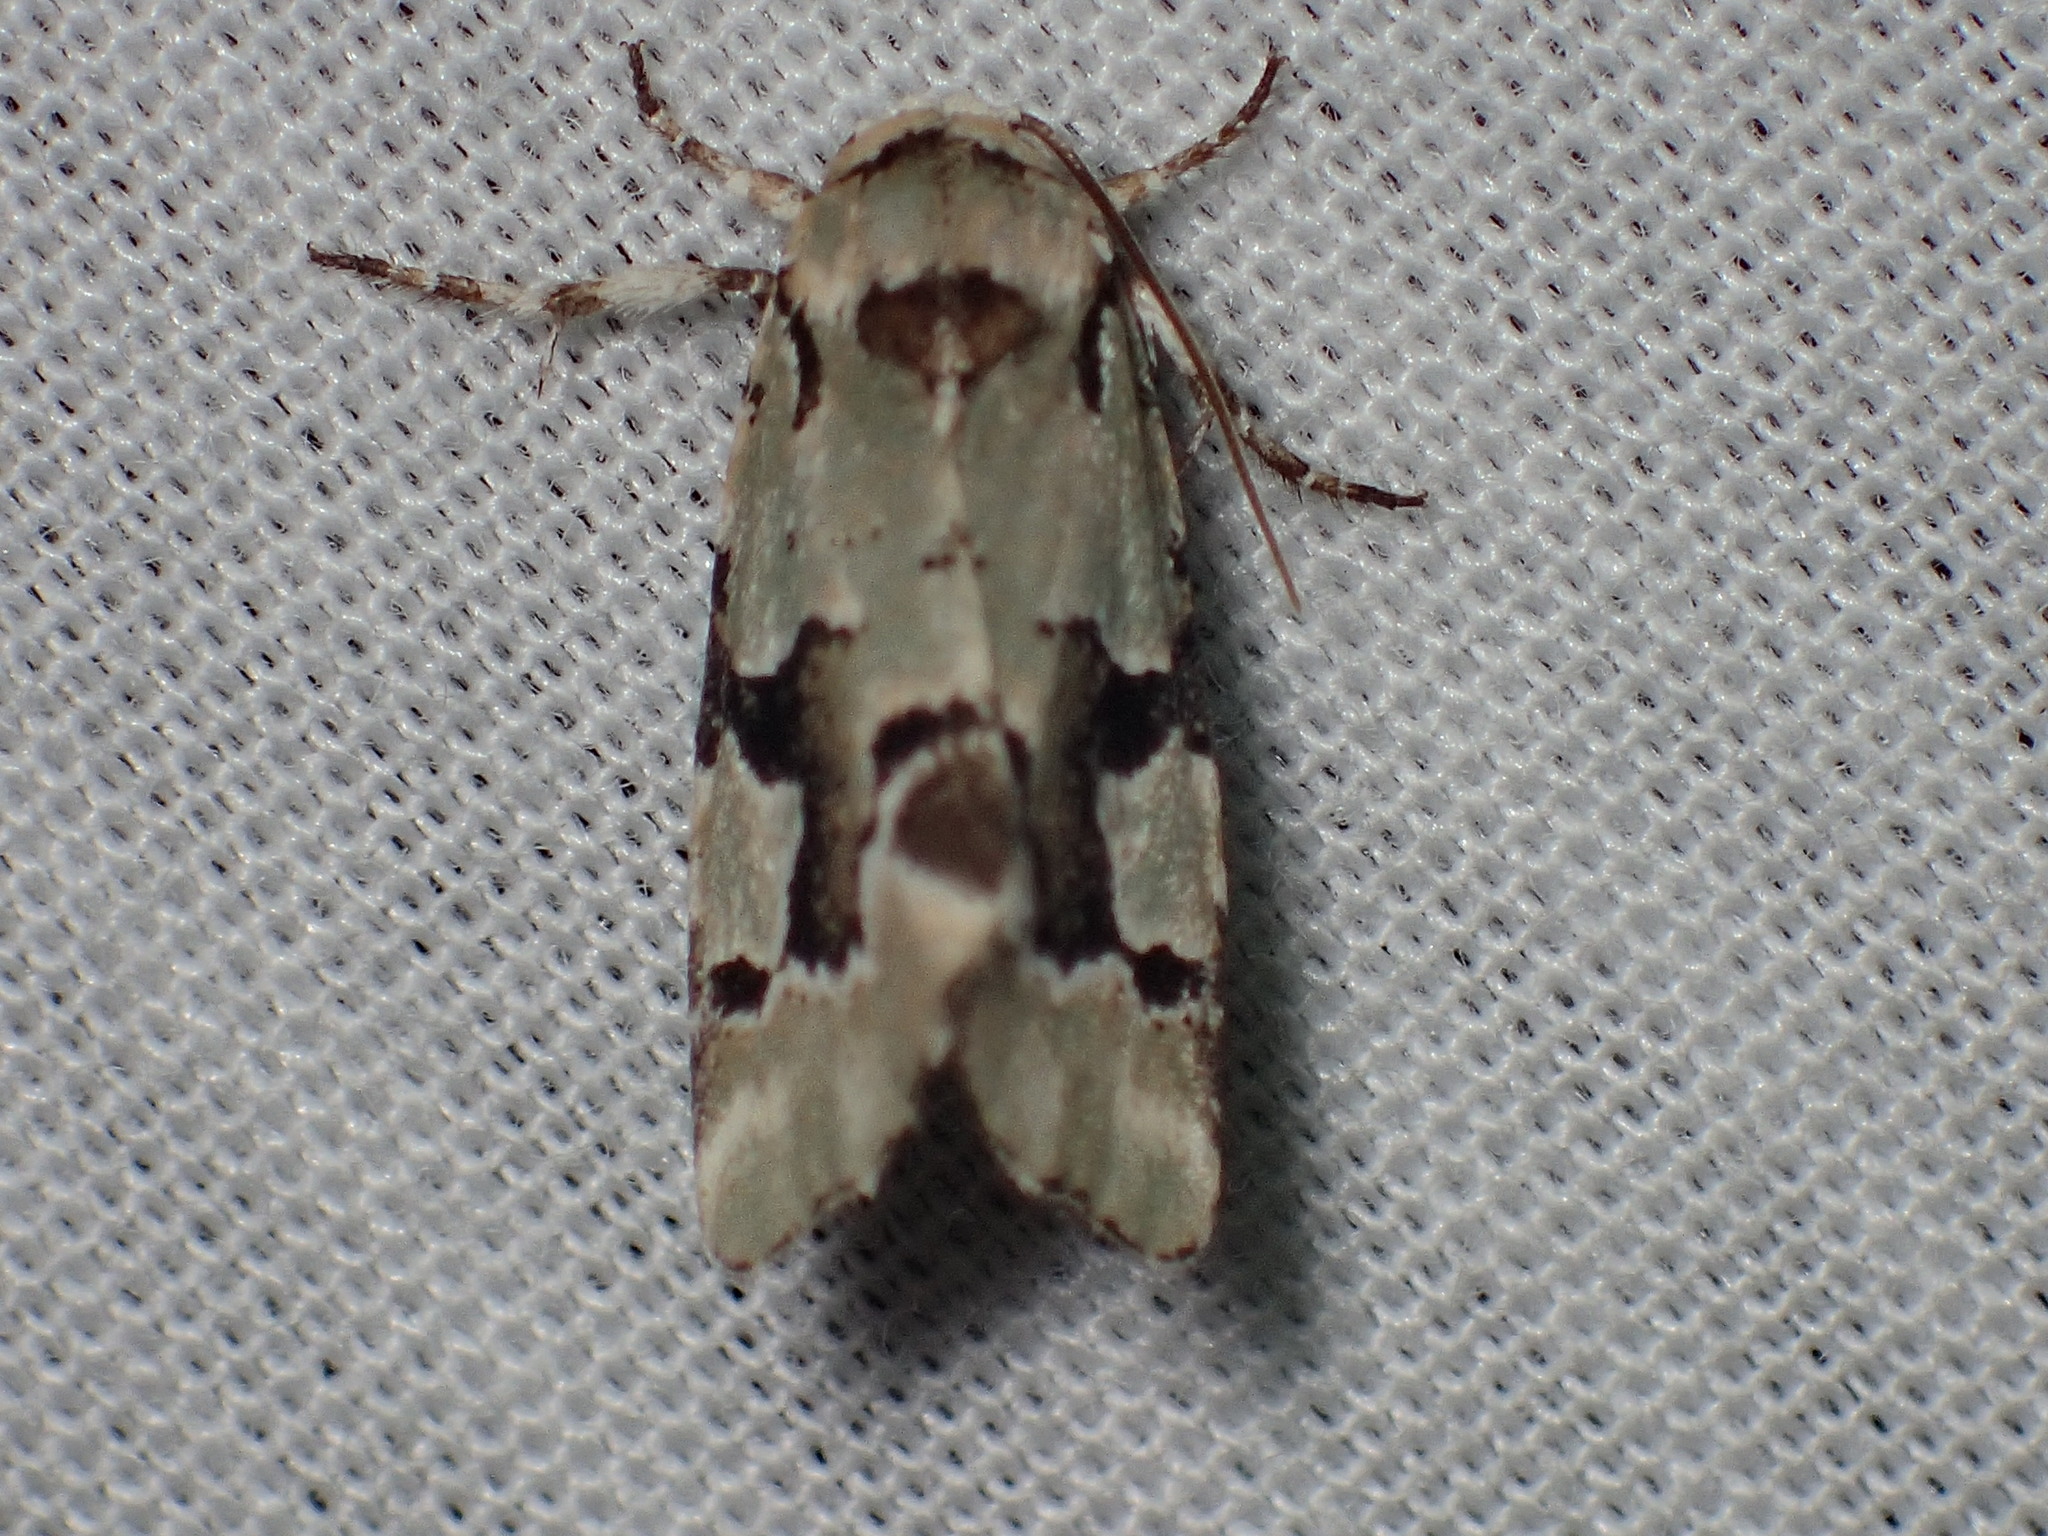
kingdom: Animalia
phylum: Arthropoda
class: Insecta
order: Lepidoptera
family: Noctuidae
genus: Emarginea
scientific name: Emarginea percara
